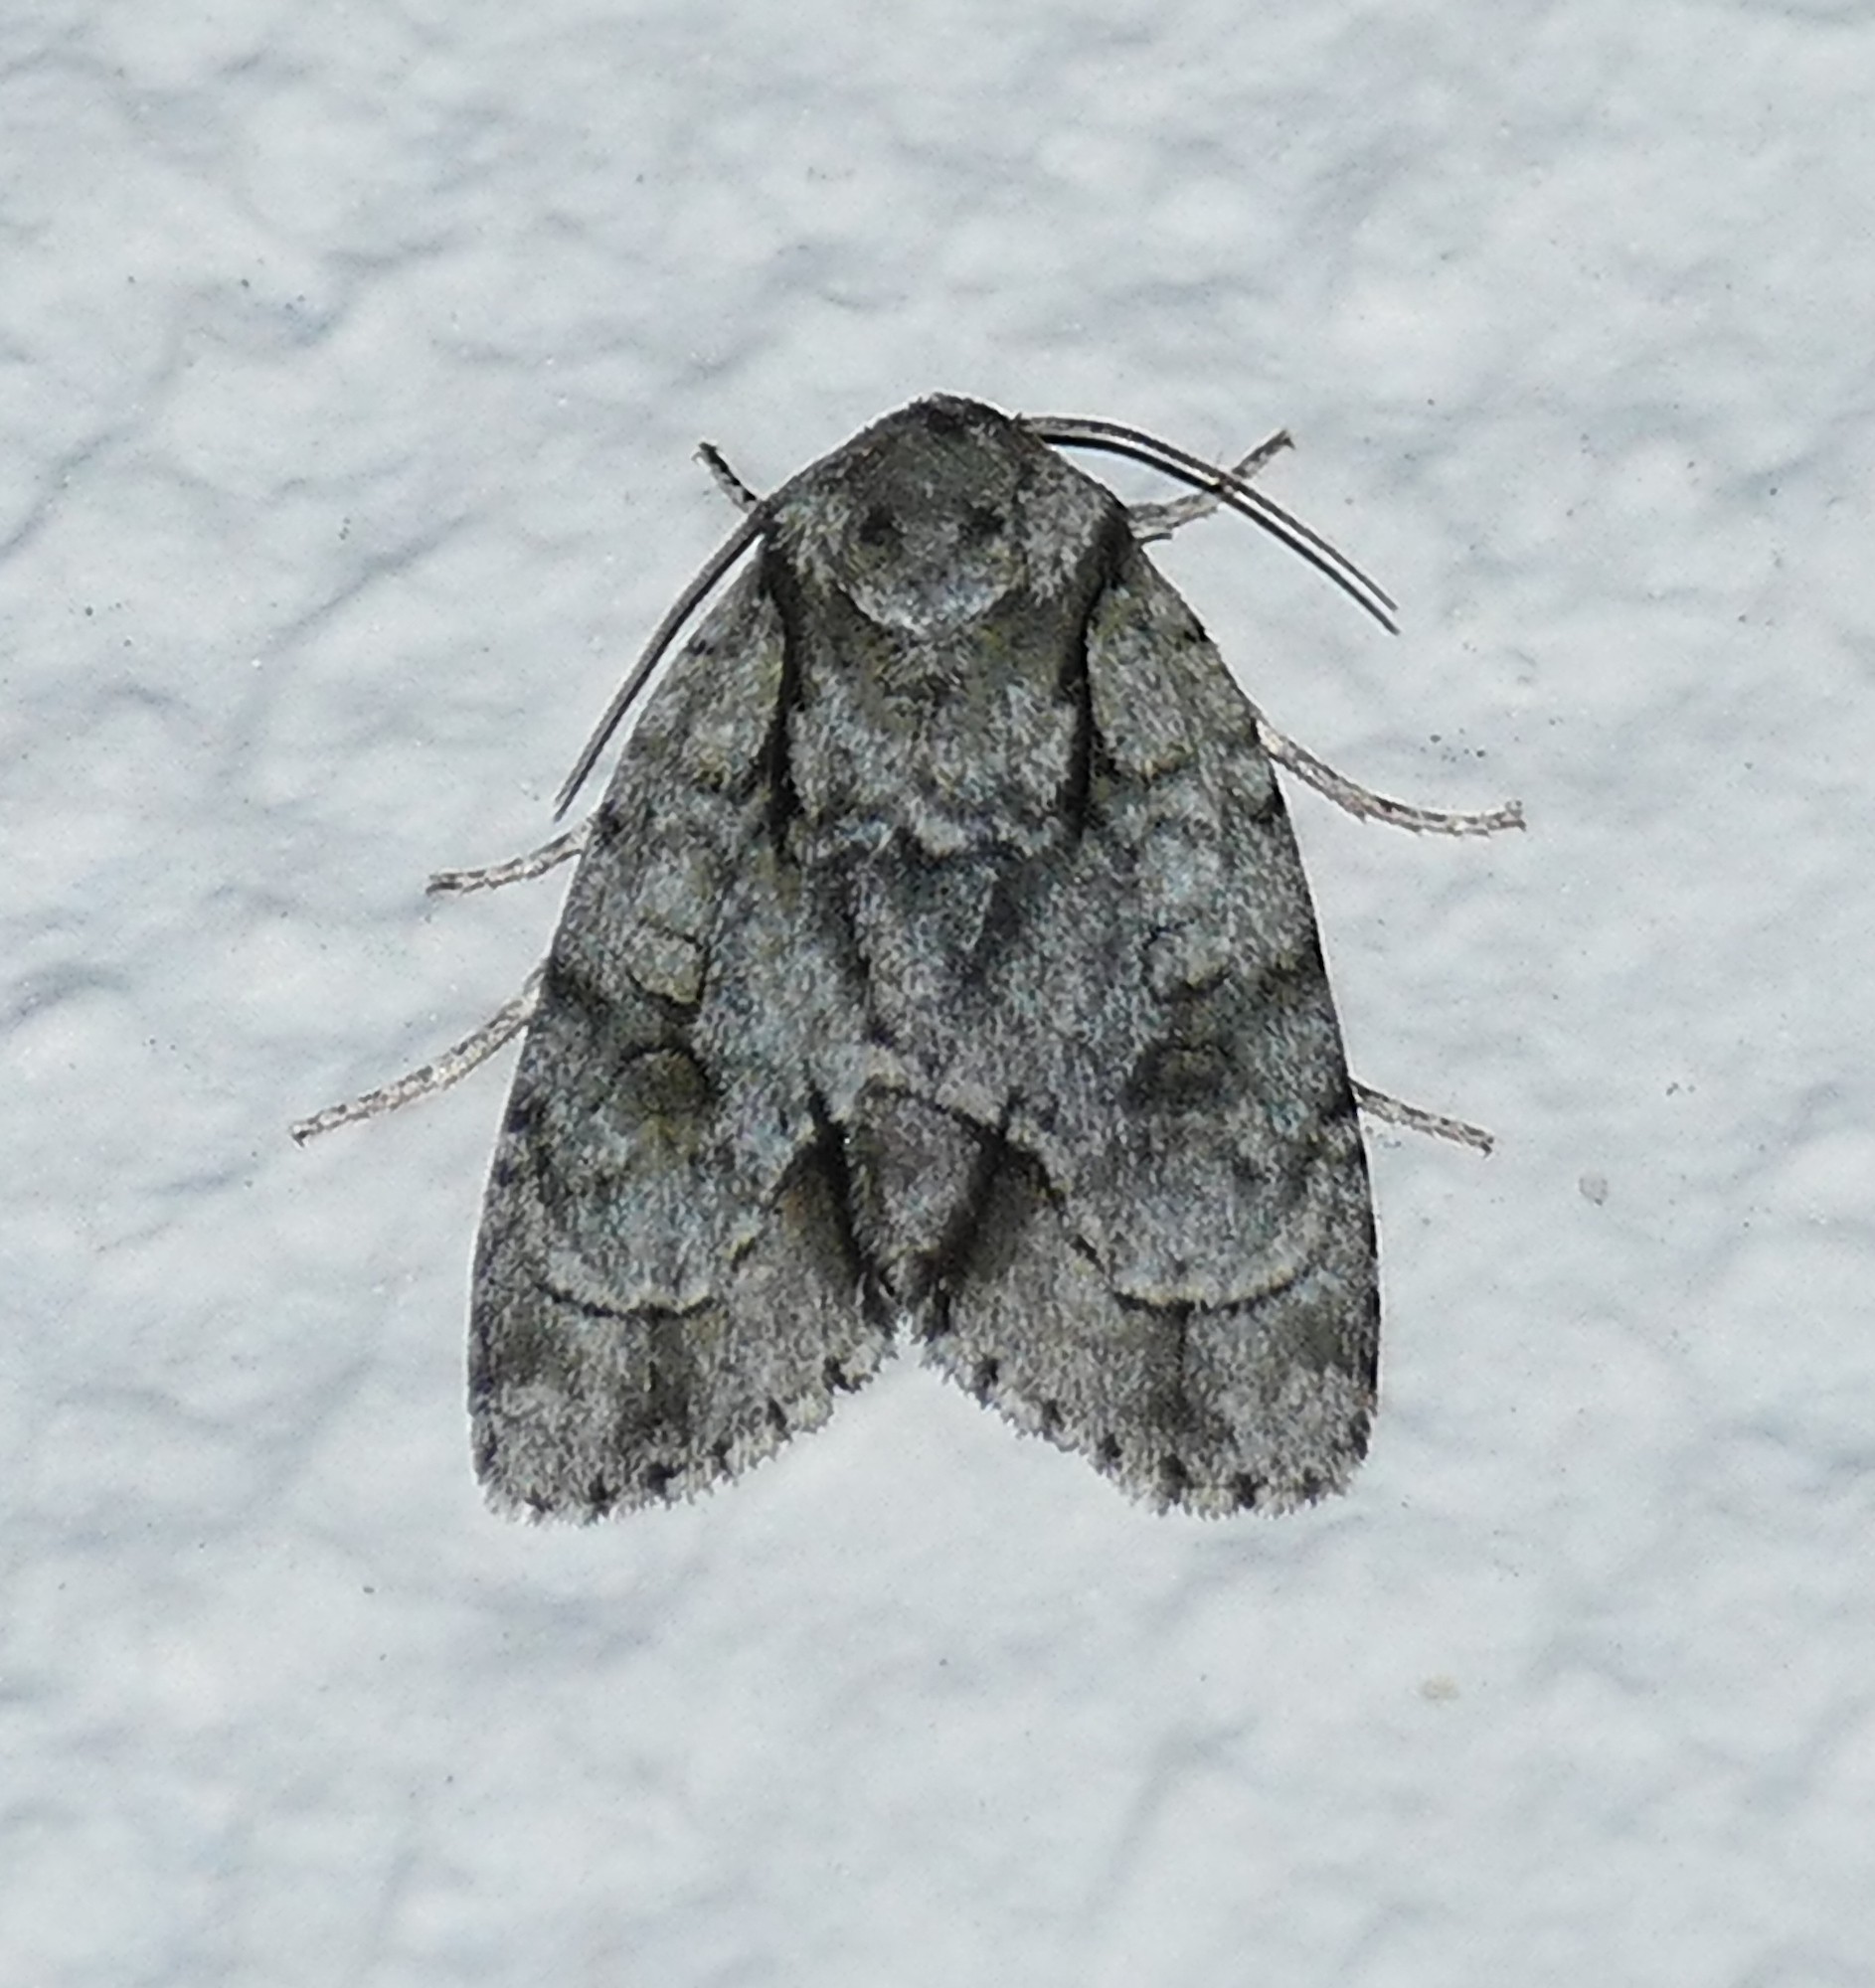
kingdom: Animalia
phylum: Arthropoda
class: Insecta
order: Lepidoptera
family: Noctuidae
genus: Acronicta
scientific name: Acronicta vinnula
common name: Delightful dagger
